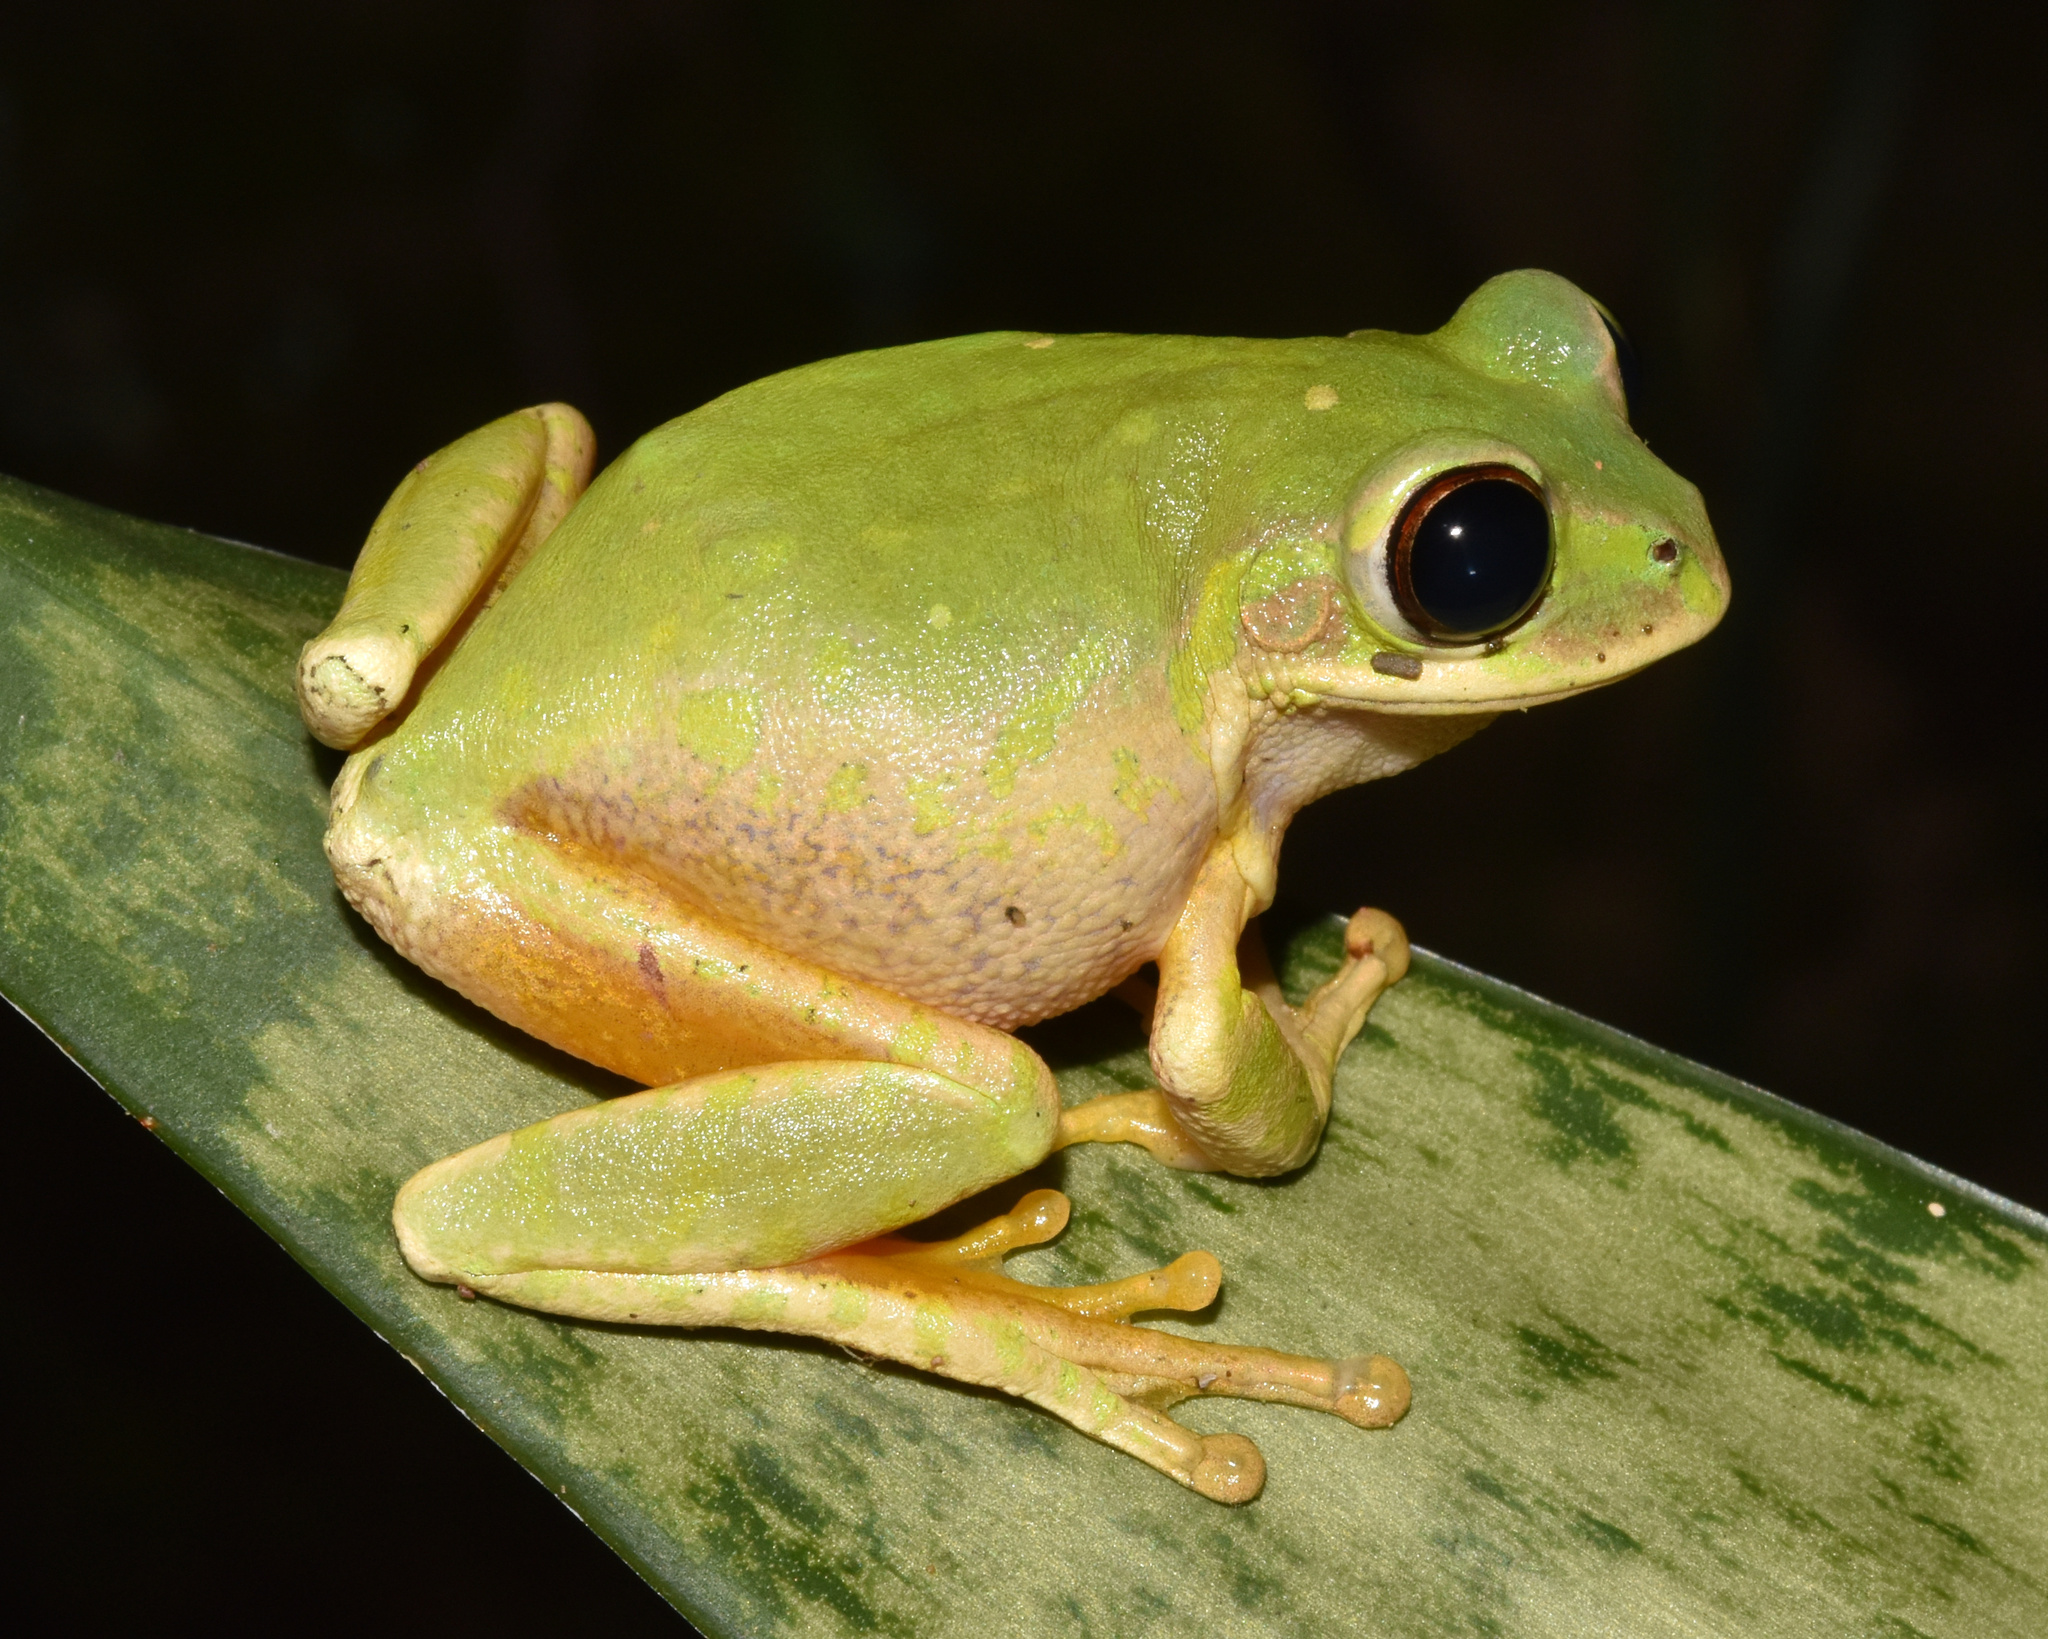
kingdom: Animalia
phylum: Chordata
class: Amphibia
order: Anura
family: Arthroleptidae
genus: Leptopelis
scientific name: Leptopelis natalensis
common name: Natal tree frog
